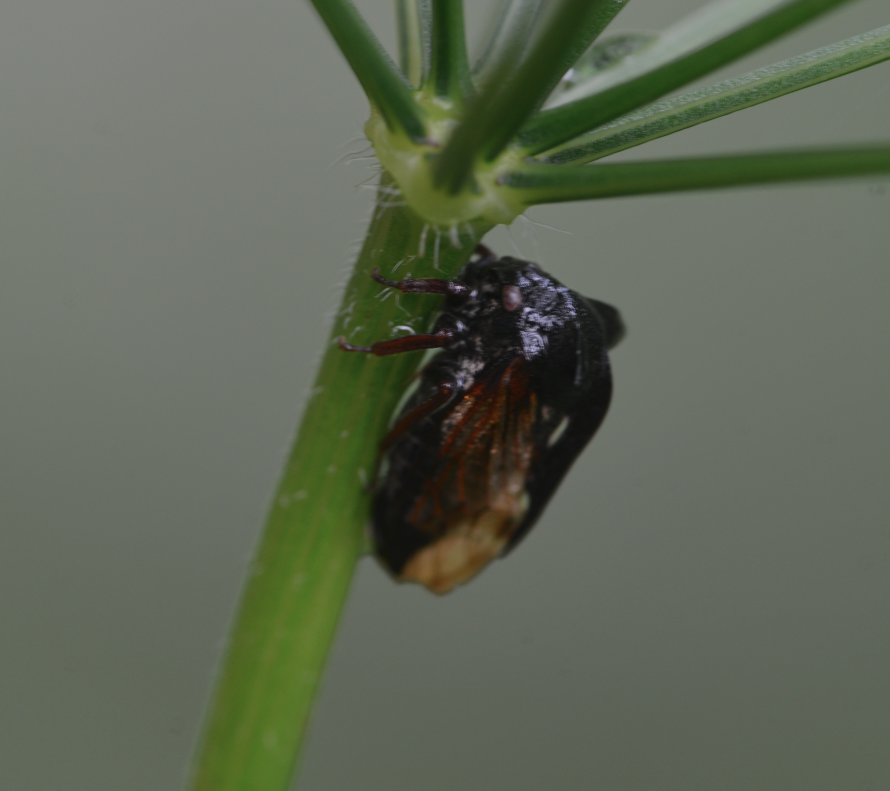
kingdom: Animalia
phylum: Arthropoda
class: Insecta
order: Hemiptera
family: Membracidae
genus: Centrotus
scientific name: Centrotus cornuta
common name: Treehopper
